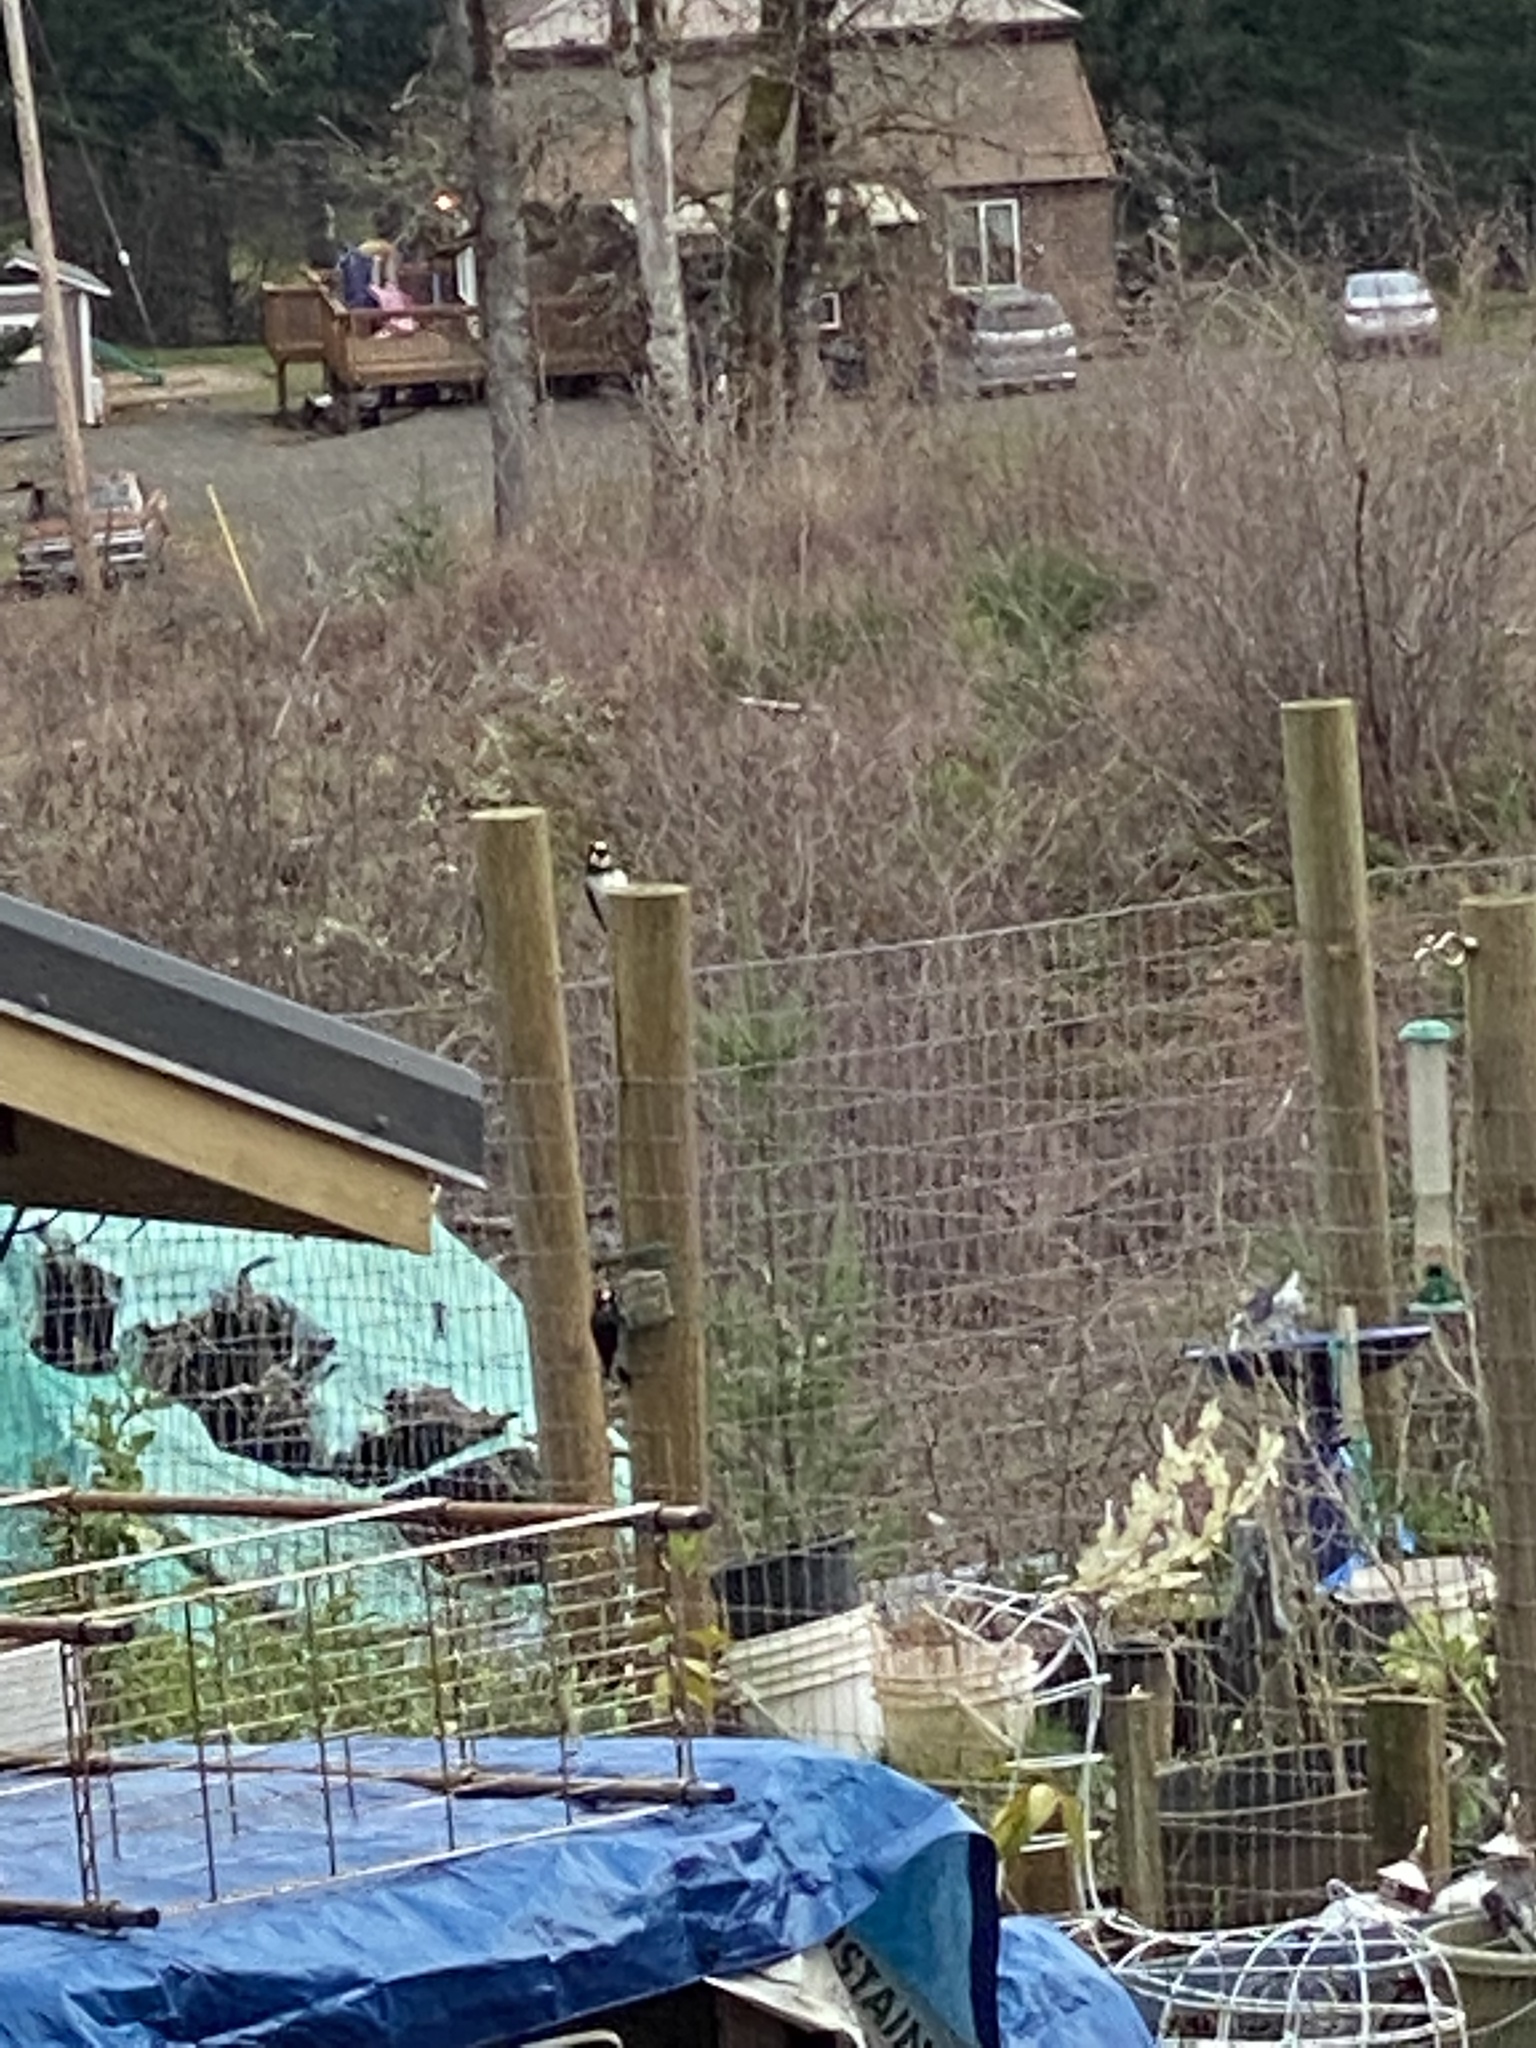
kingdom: Animalia
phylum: Chordata
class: Aves
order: Piciformes
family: Picidae
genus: Melanerpes
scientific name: Melanerpes formicivorus
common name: Acorn woodpecker
